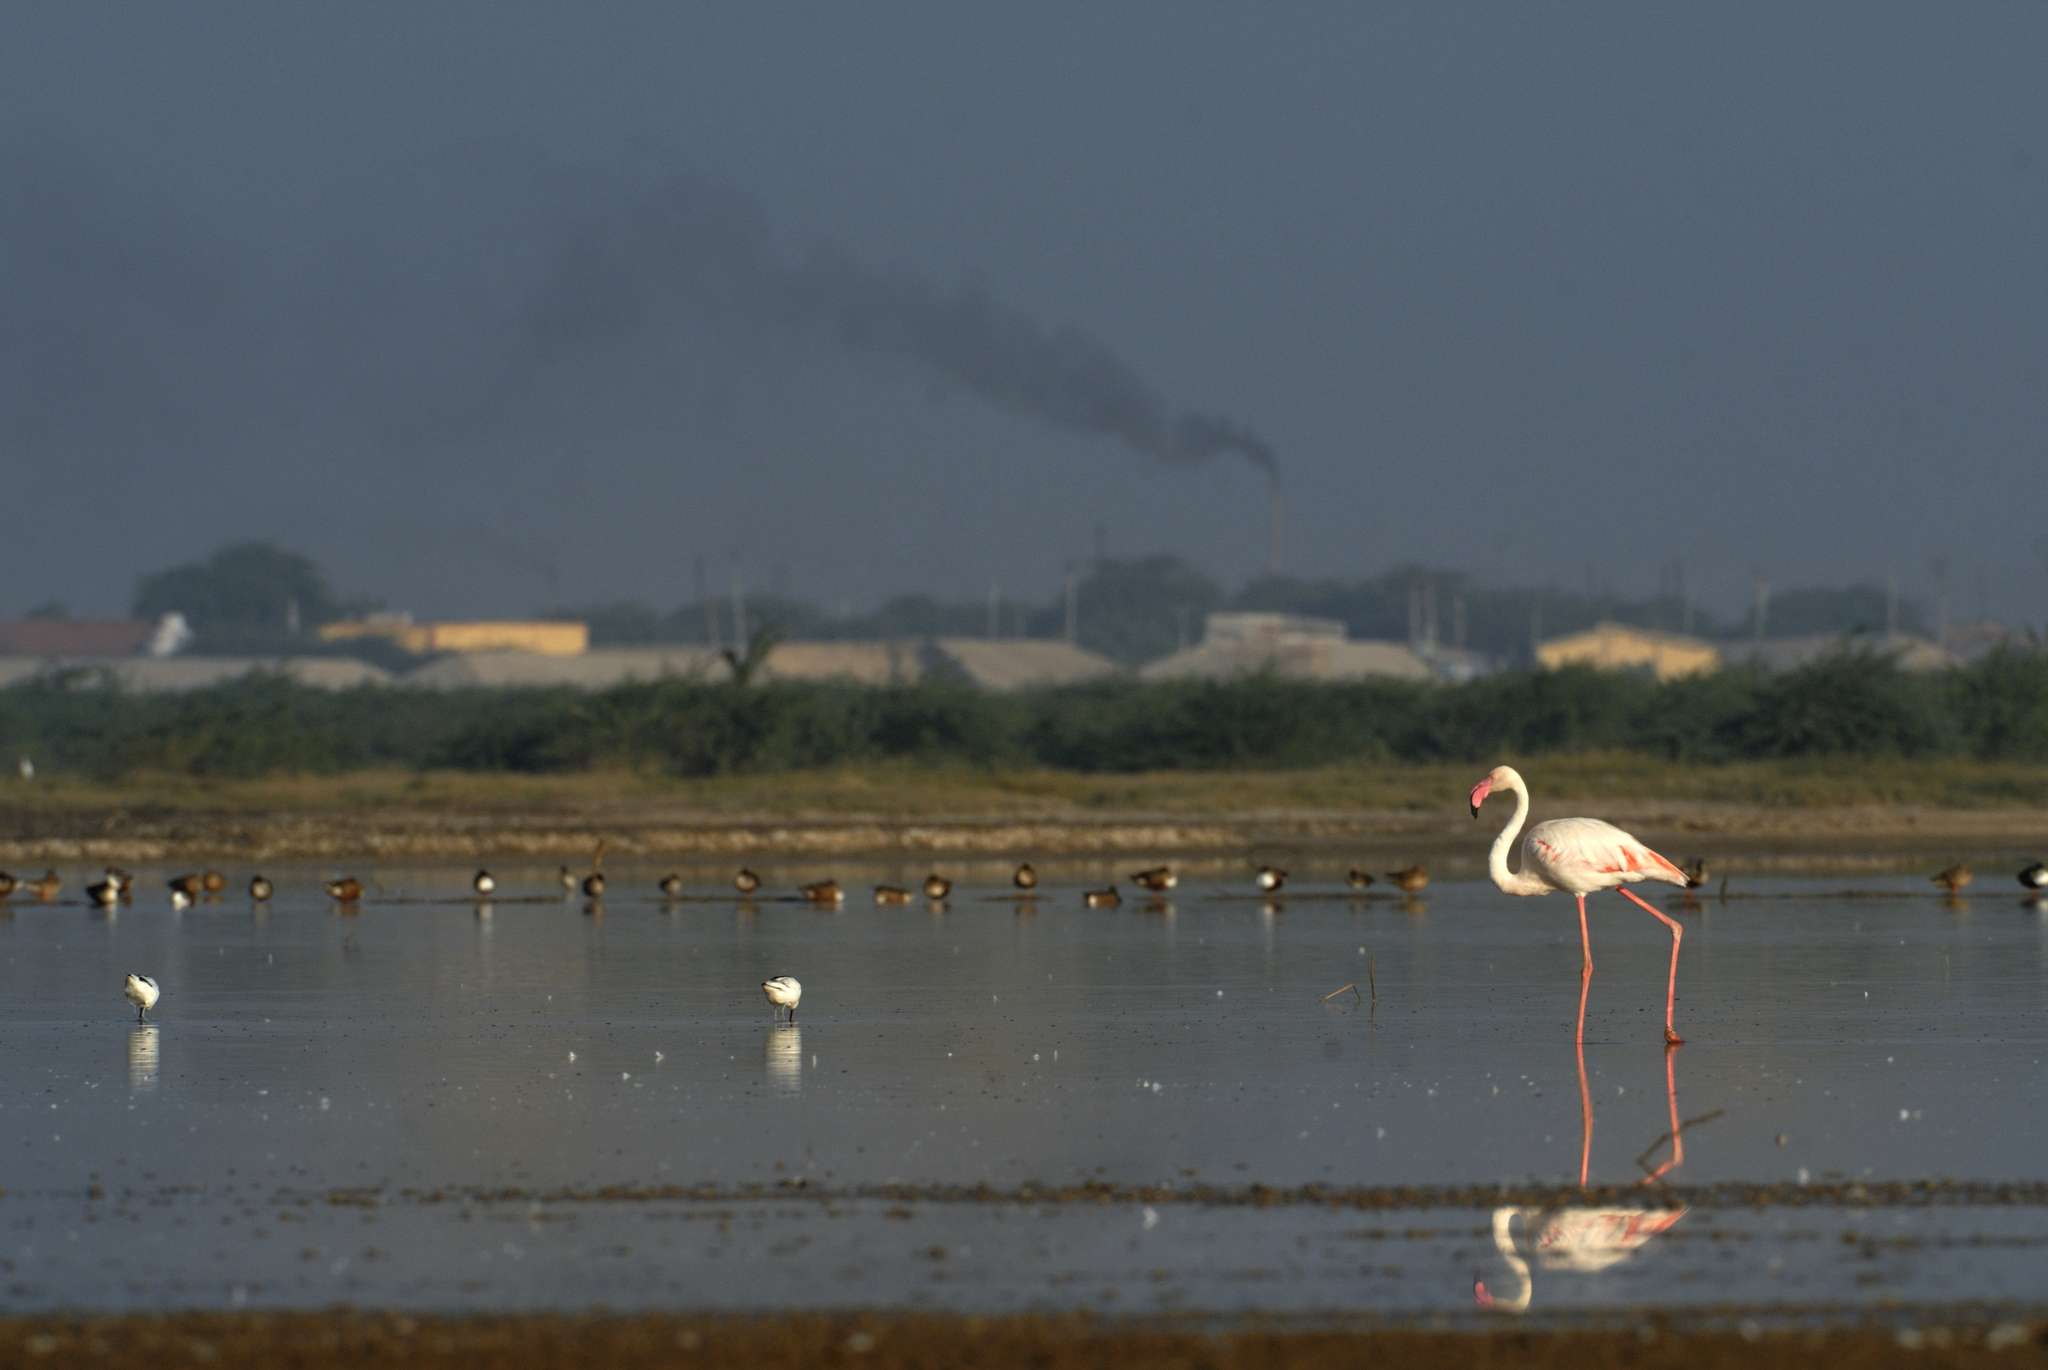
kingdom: Animalia
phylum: Chordata
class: Aves
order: Phoenicopteriformes
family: Phoenicopteridae
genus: Phoenicopterus
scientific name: Phoenicopterus roseus
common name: Greater flamingo
